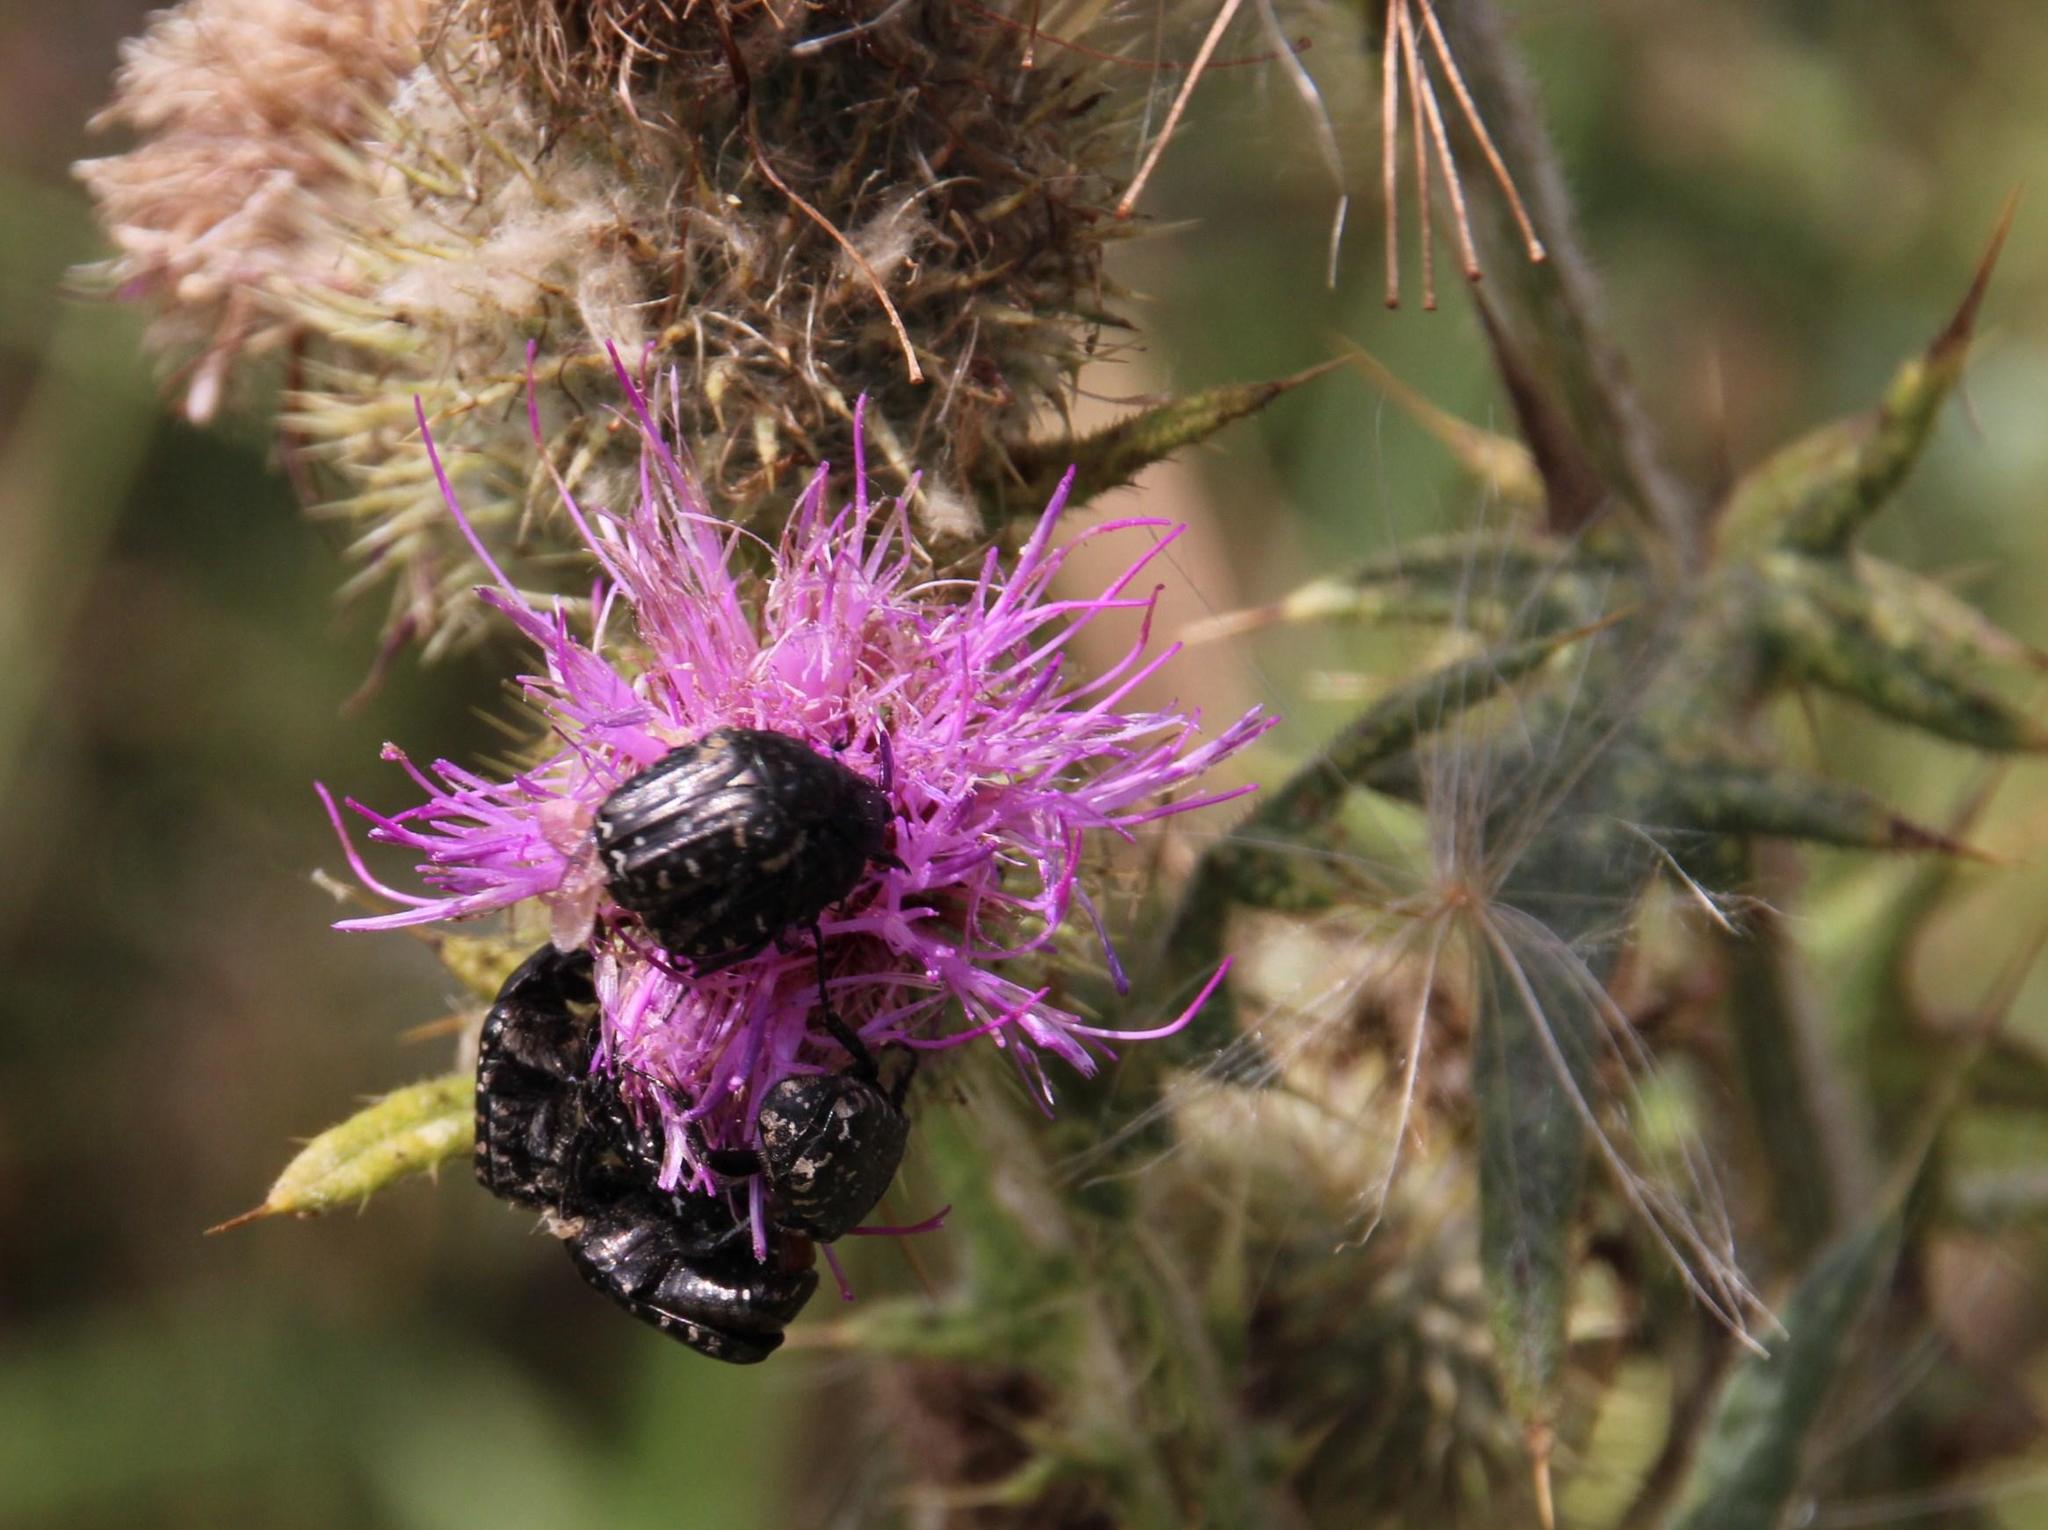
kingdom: Plantae
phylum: Tracheophyta
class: Magnoliopsida
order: Asterales
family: Asteraceae
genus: Cirsium
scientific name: Cirsium vulgare
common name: Bull thistle
